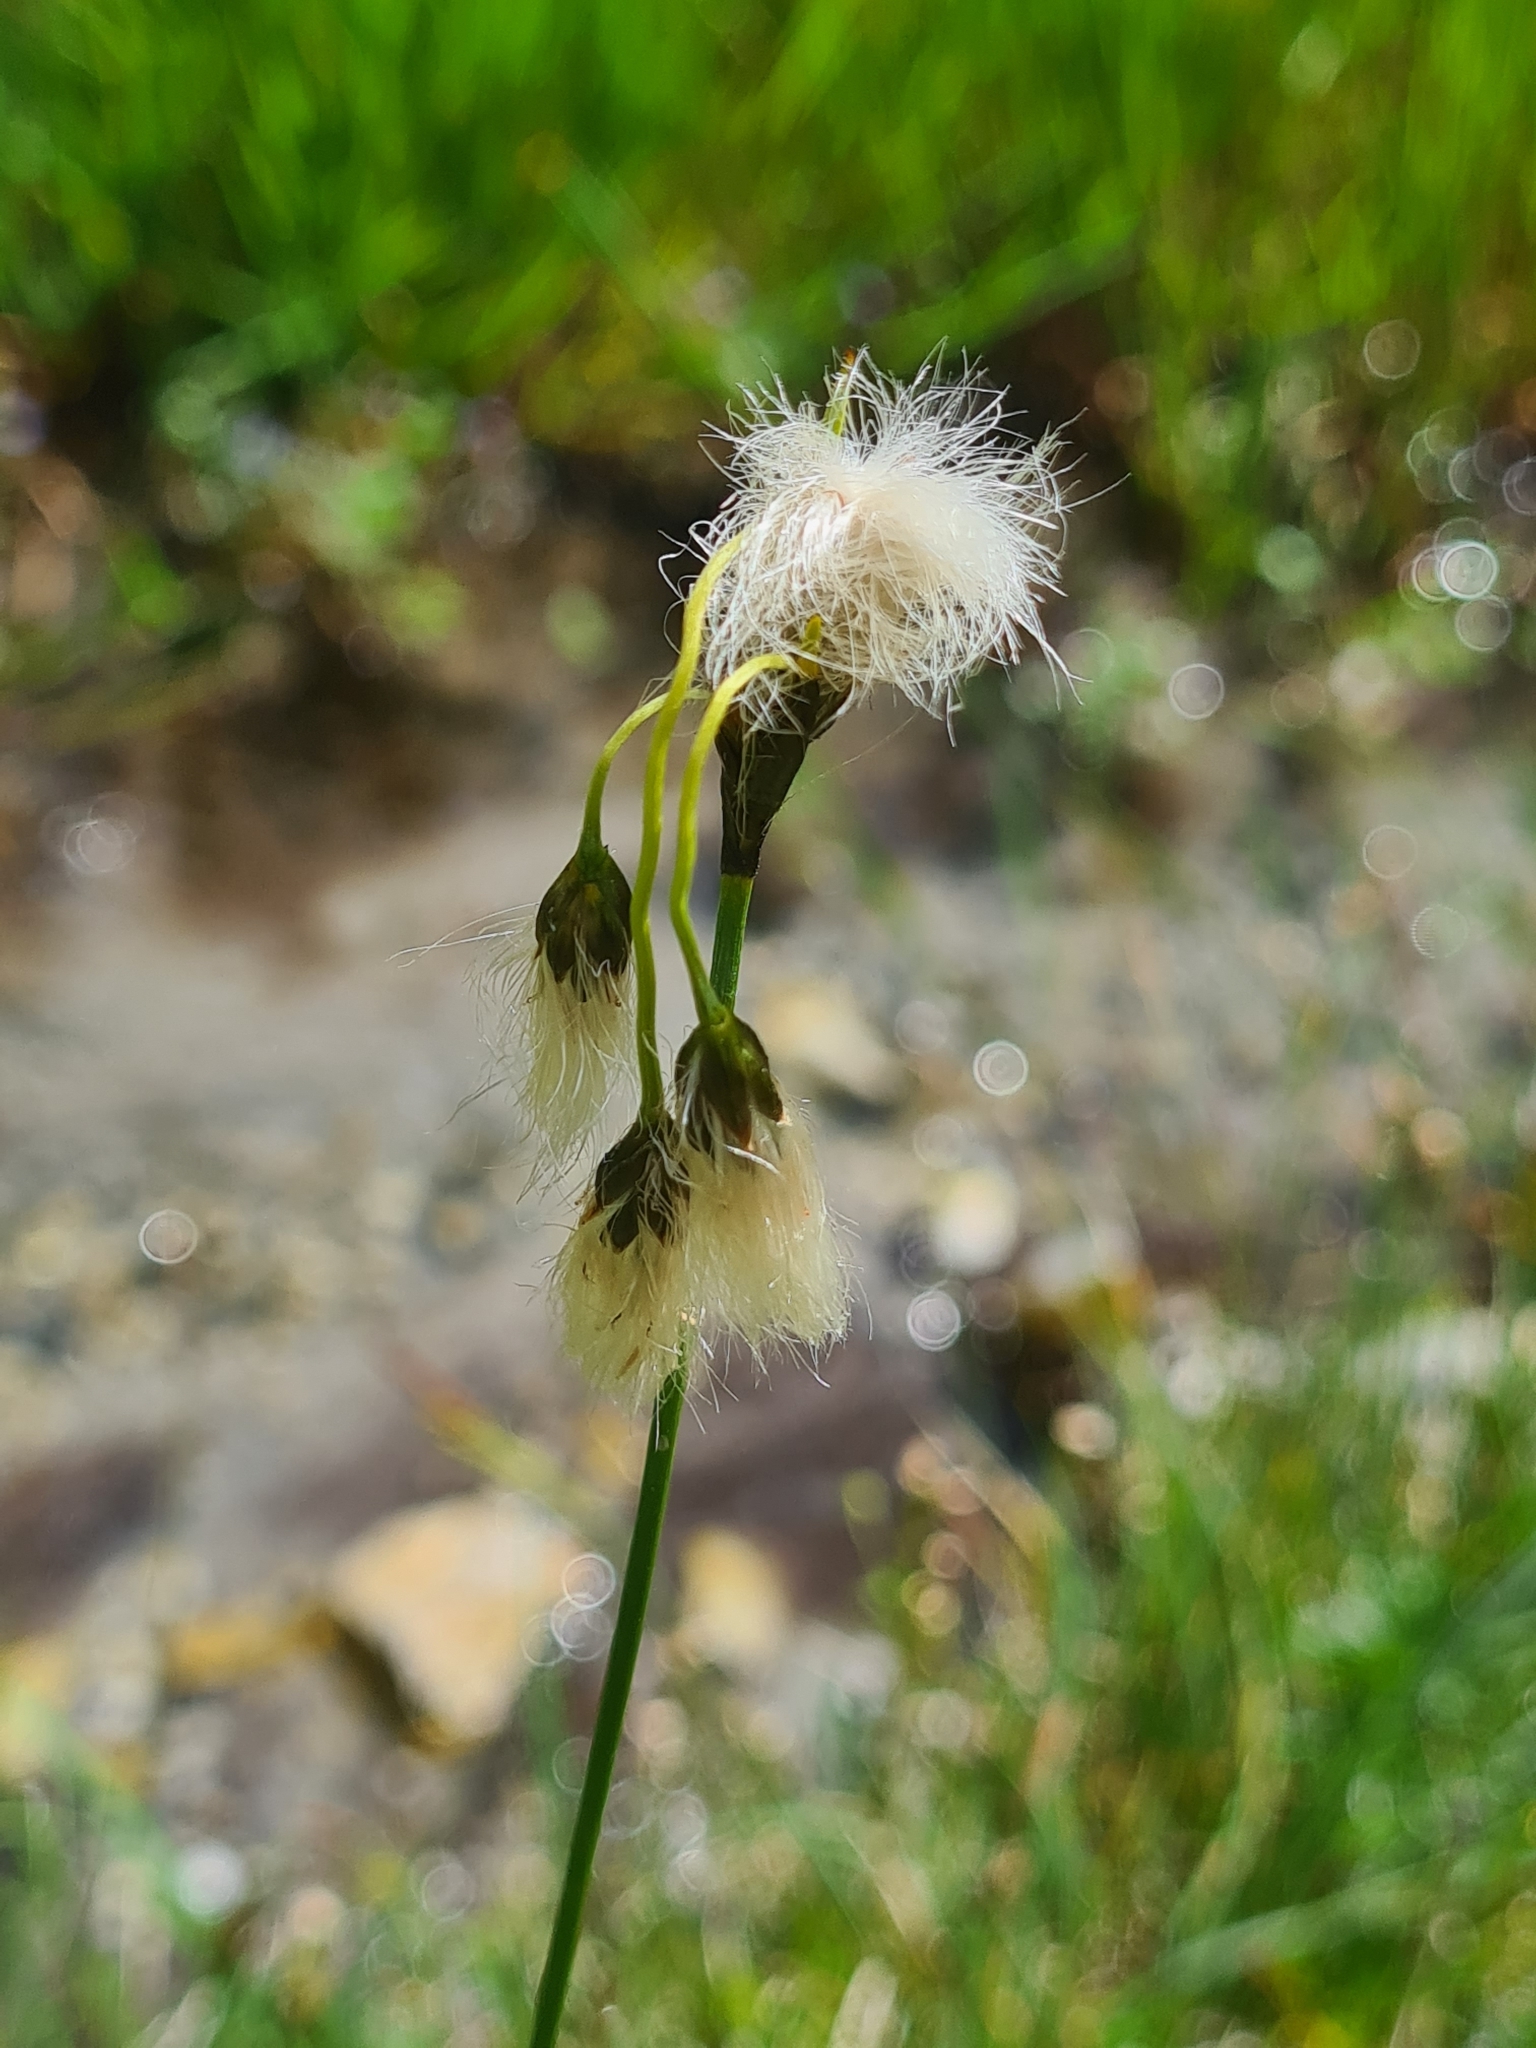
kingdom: Plantae
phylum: Tracheophyta
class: Liliopsida
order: Poales
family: Cyperaceae
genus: Eriophorum
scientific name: Eriophorum angustifolium
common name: Common cottongrass
